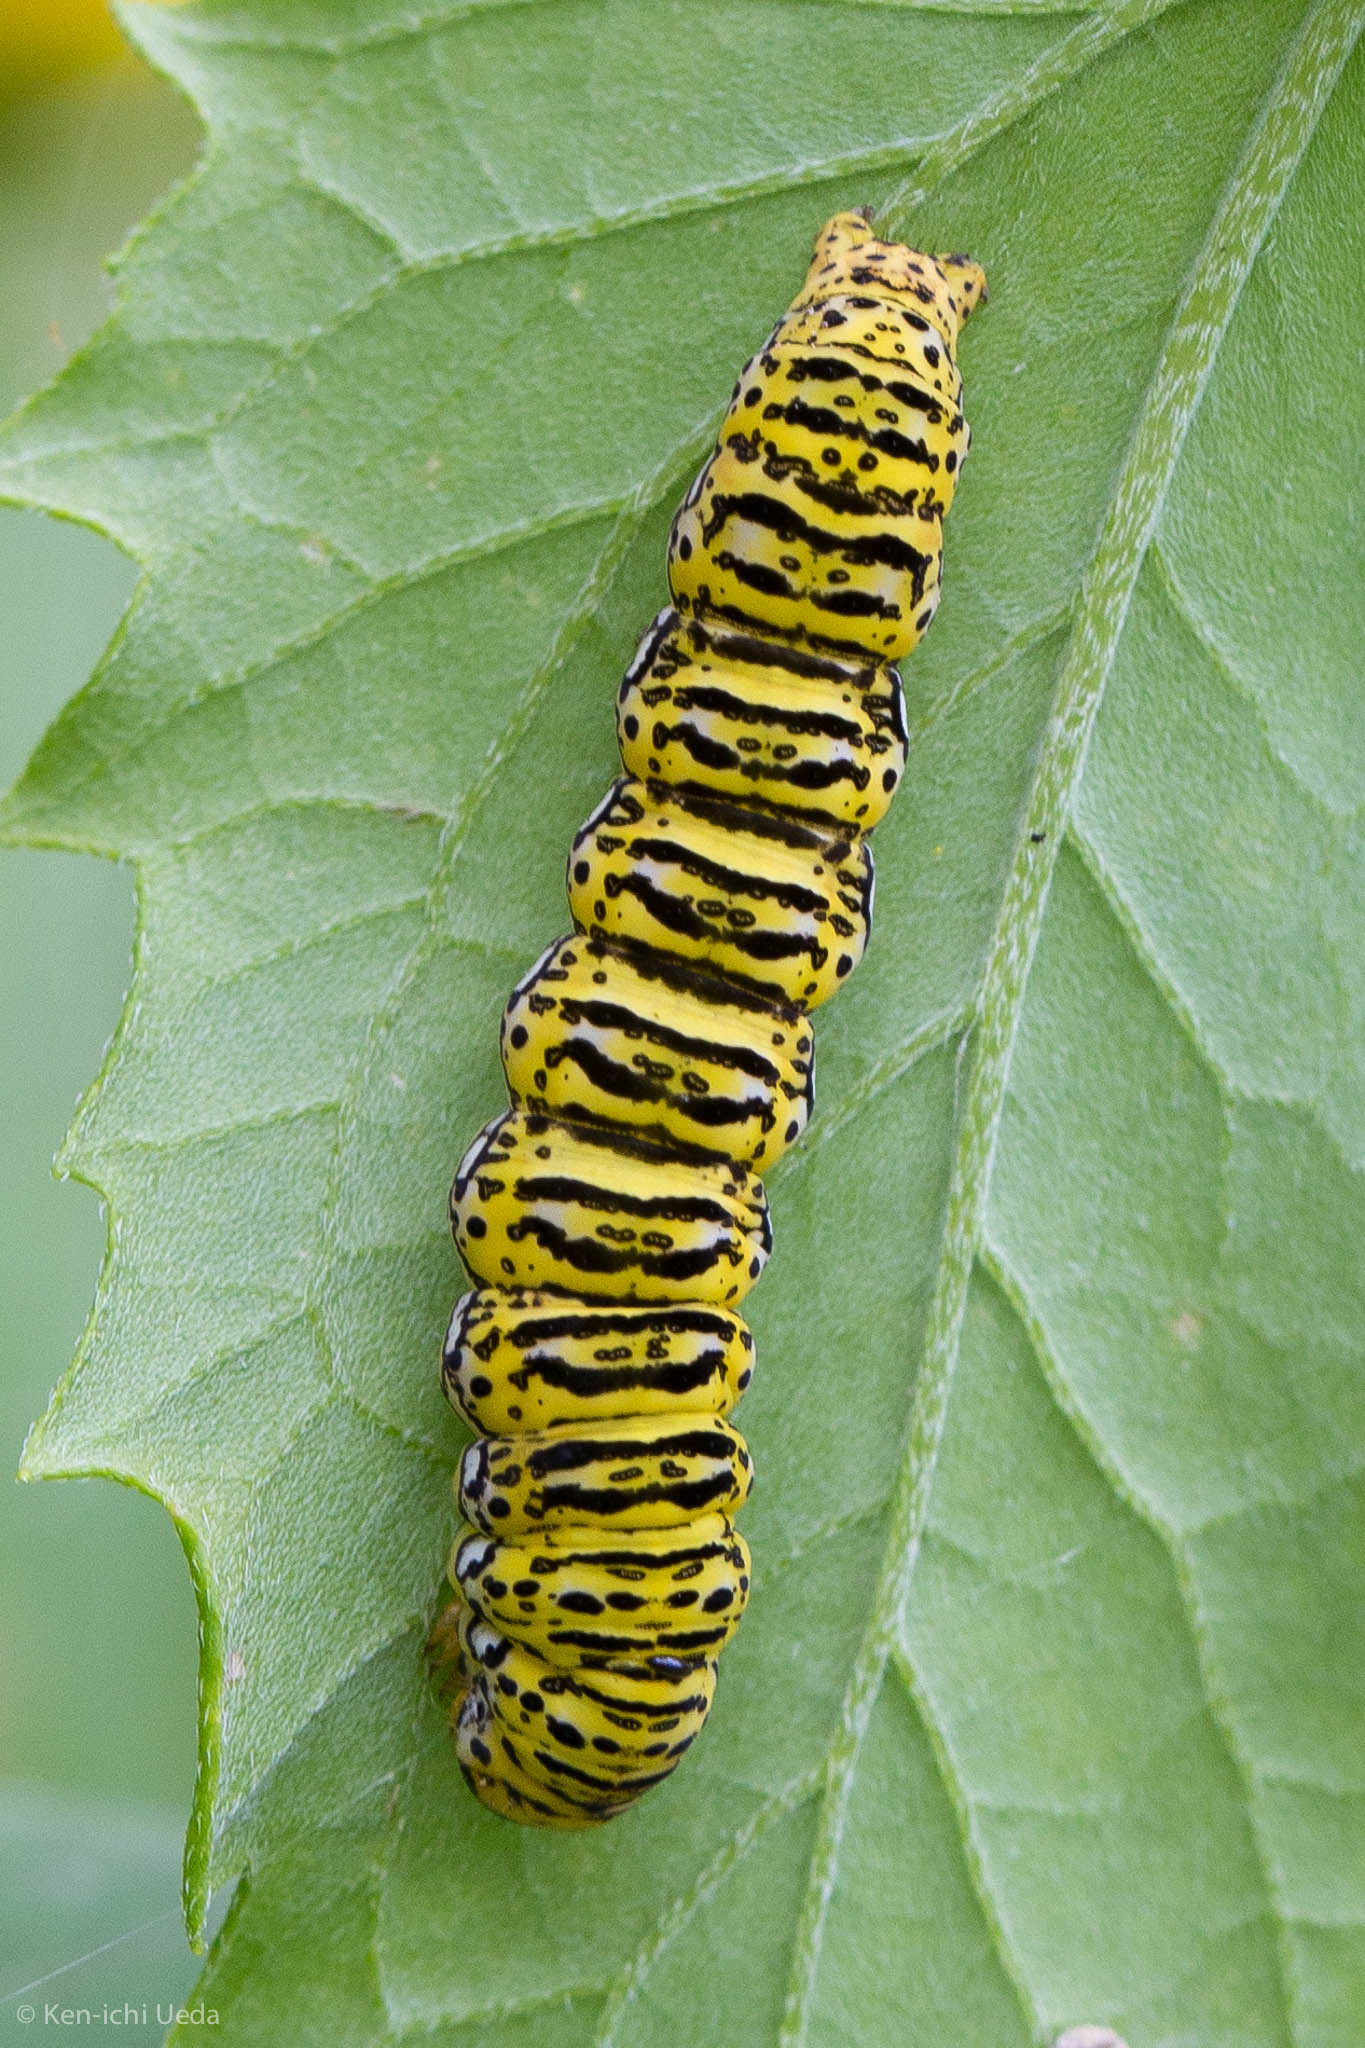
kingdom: Animalia
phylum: Arthropoda
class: Insecta
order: Lepidoptera
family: Noctuidae
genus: Basilodes
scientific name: Basilodes chrysopis
